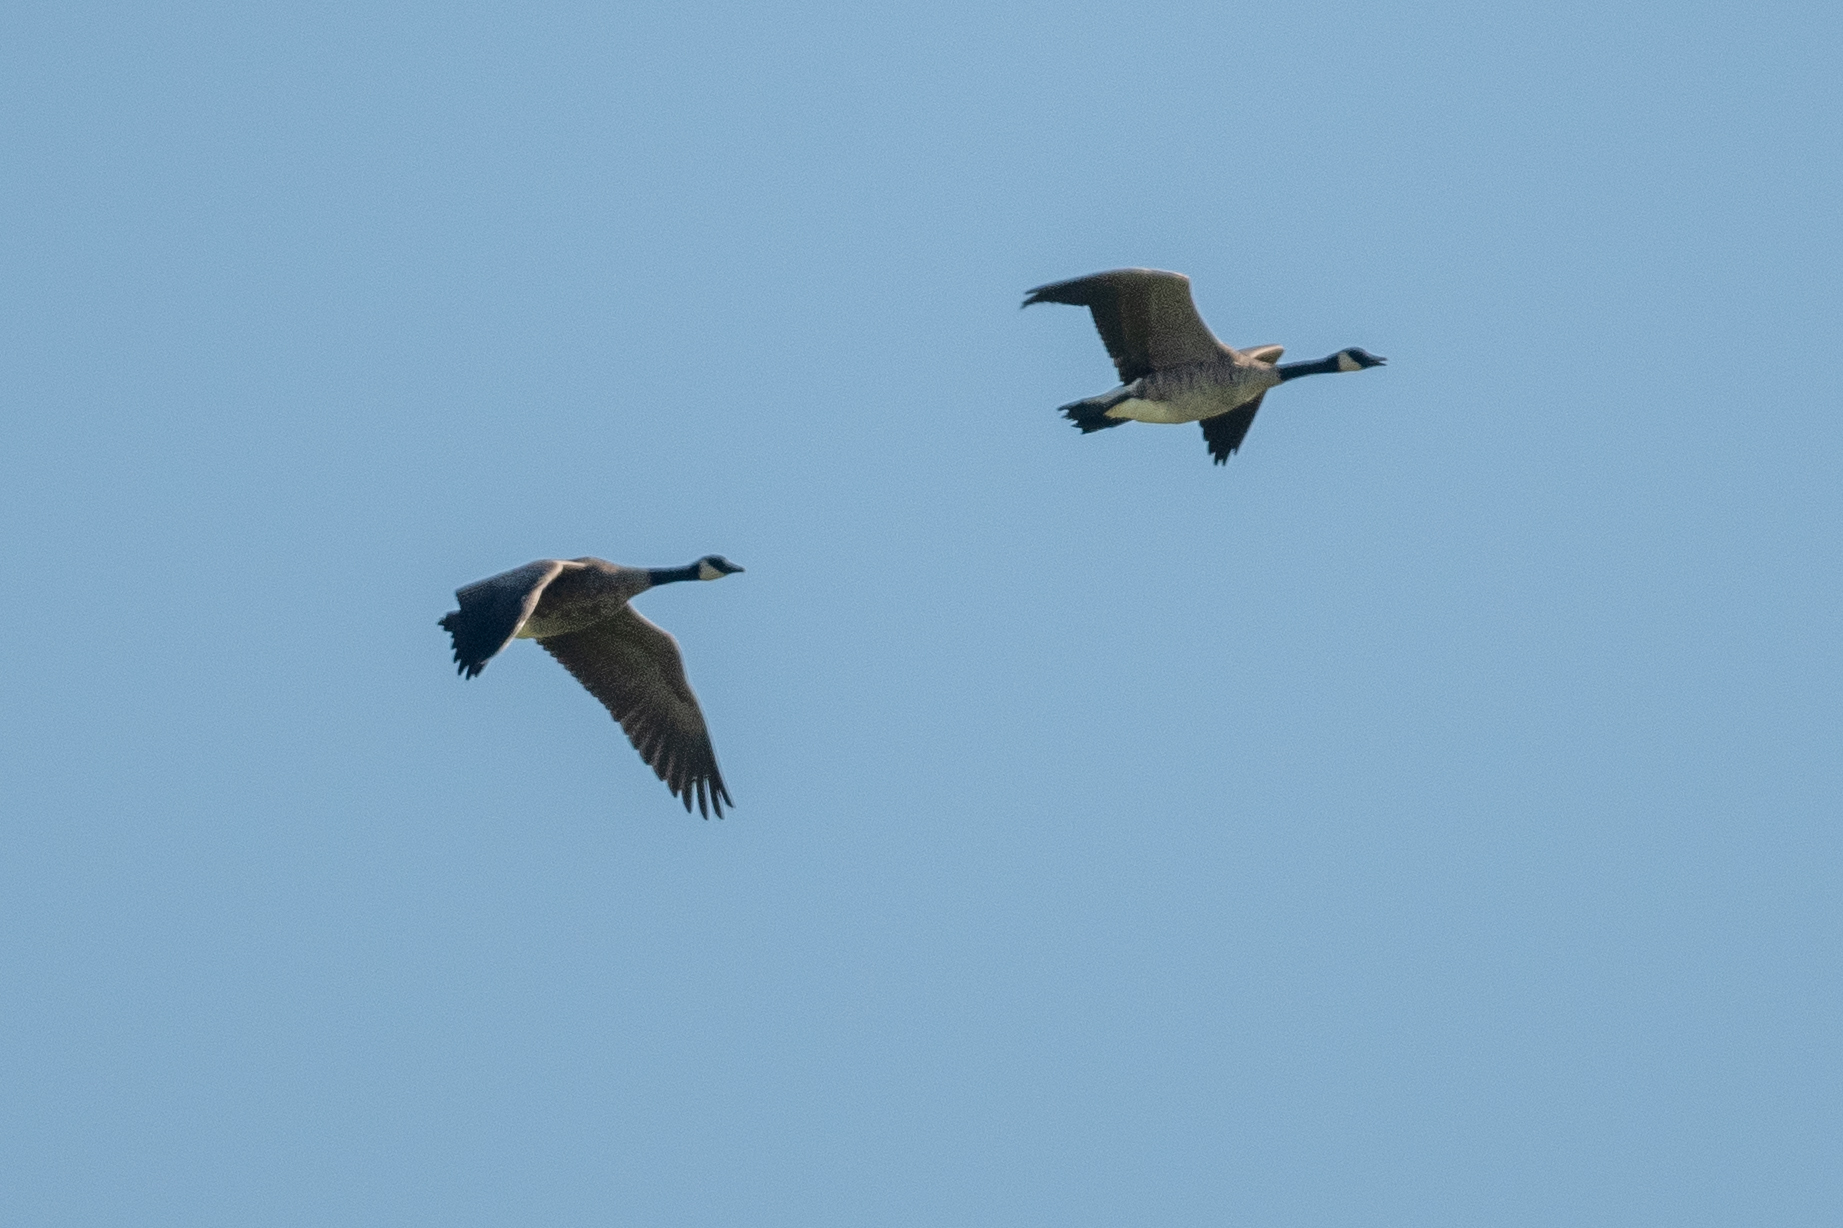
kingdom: Animalia
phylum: Chordata
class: Aves
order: Anseriformes
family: Anatidae
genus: Branta
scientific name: Branta canadensis
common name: Canada goose
